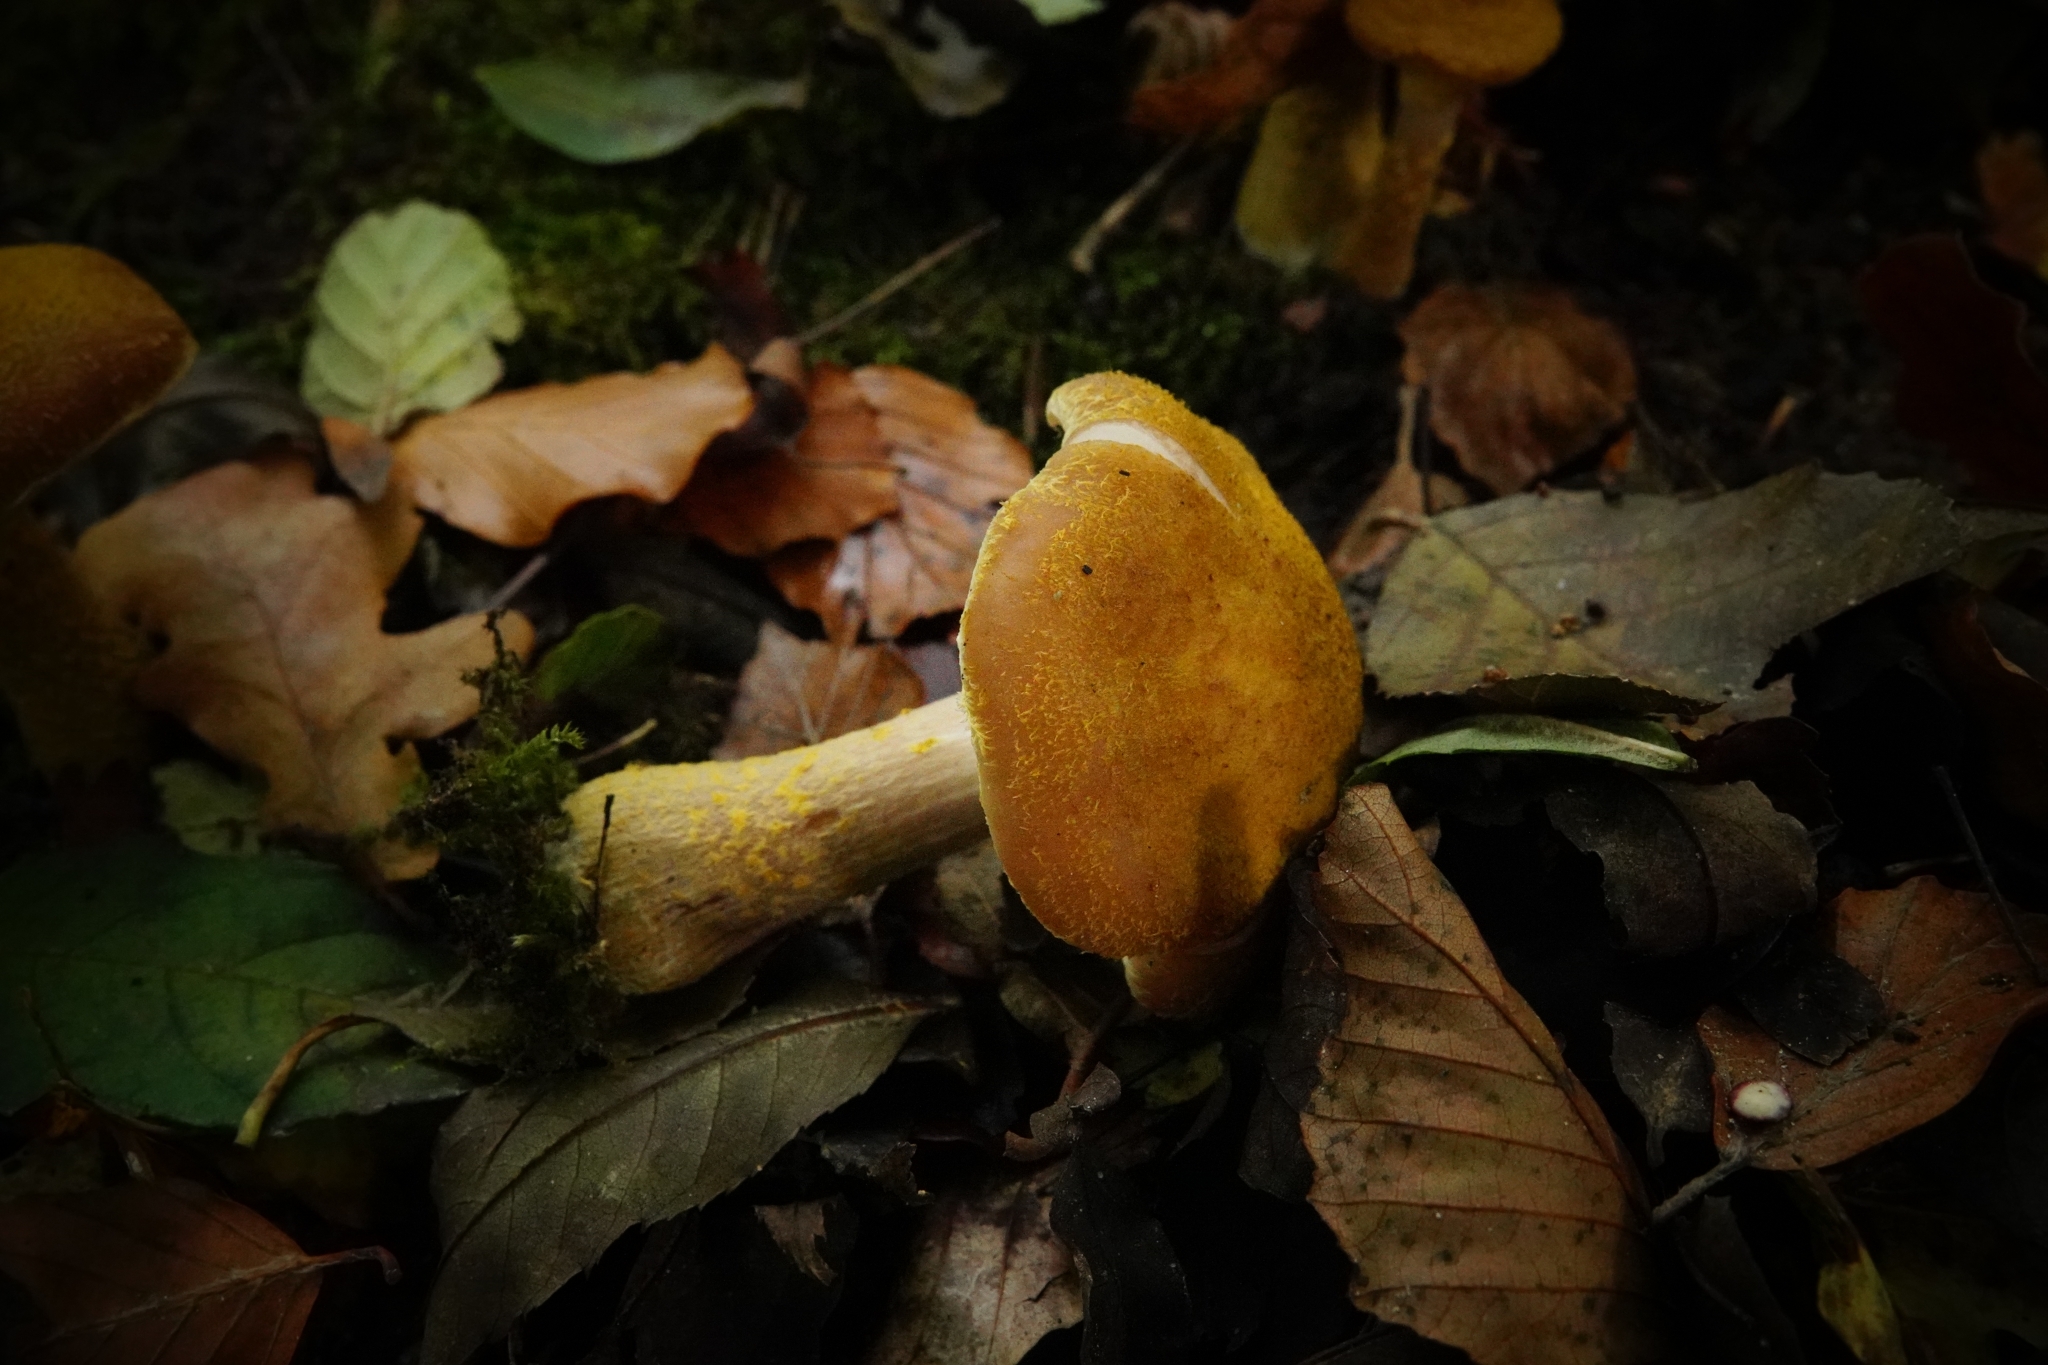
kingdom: Fungi
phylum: Basidiomycota
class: Agaricomycetes
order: Agaricales
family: Physalacriaceae
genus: Armillaria
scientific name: Armillaria gallica
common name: Bulbous honey fungus
